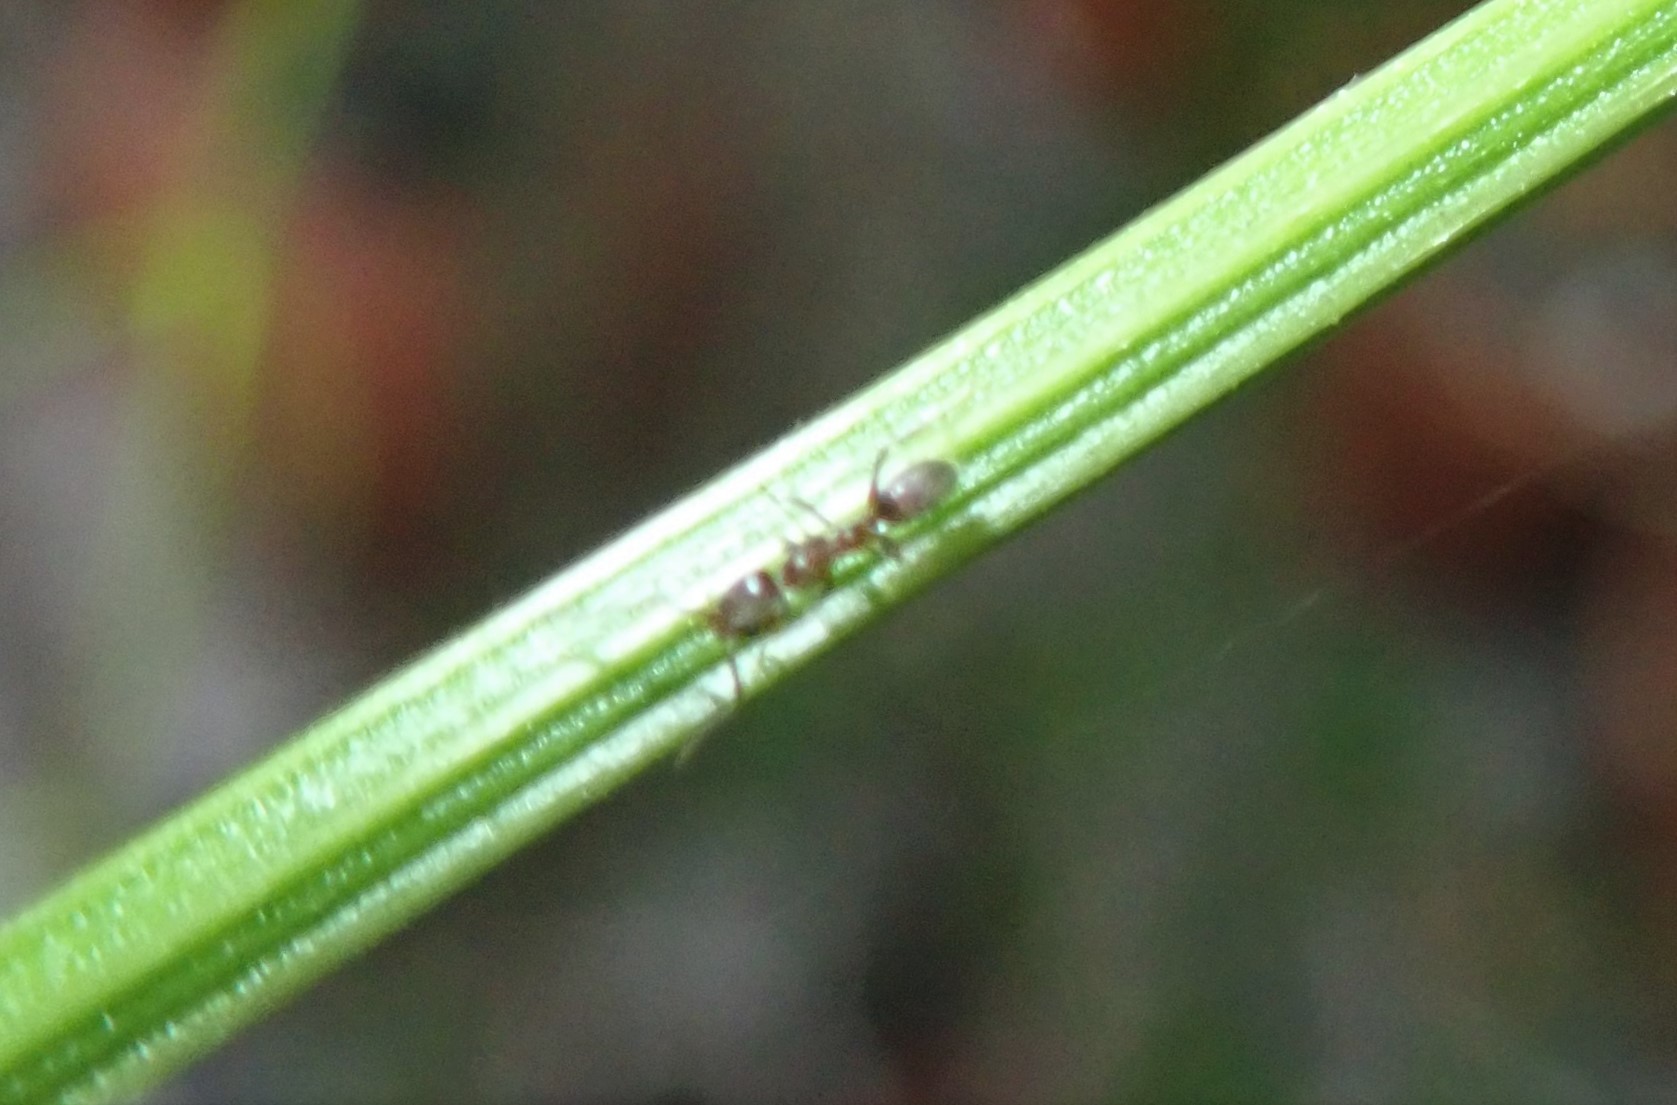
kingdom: Animalia
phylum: Arthropoda
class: Insecta
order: Hymenoptera
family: Formicidae
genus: Linepithema
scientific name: Linepithema humile
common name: Argentine ant
